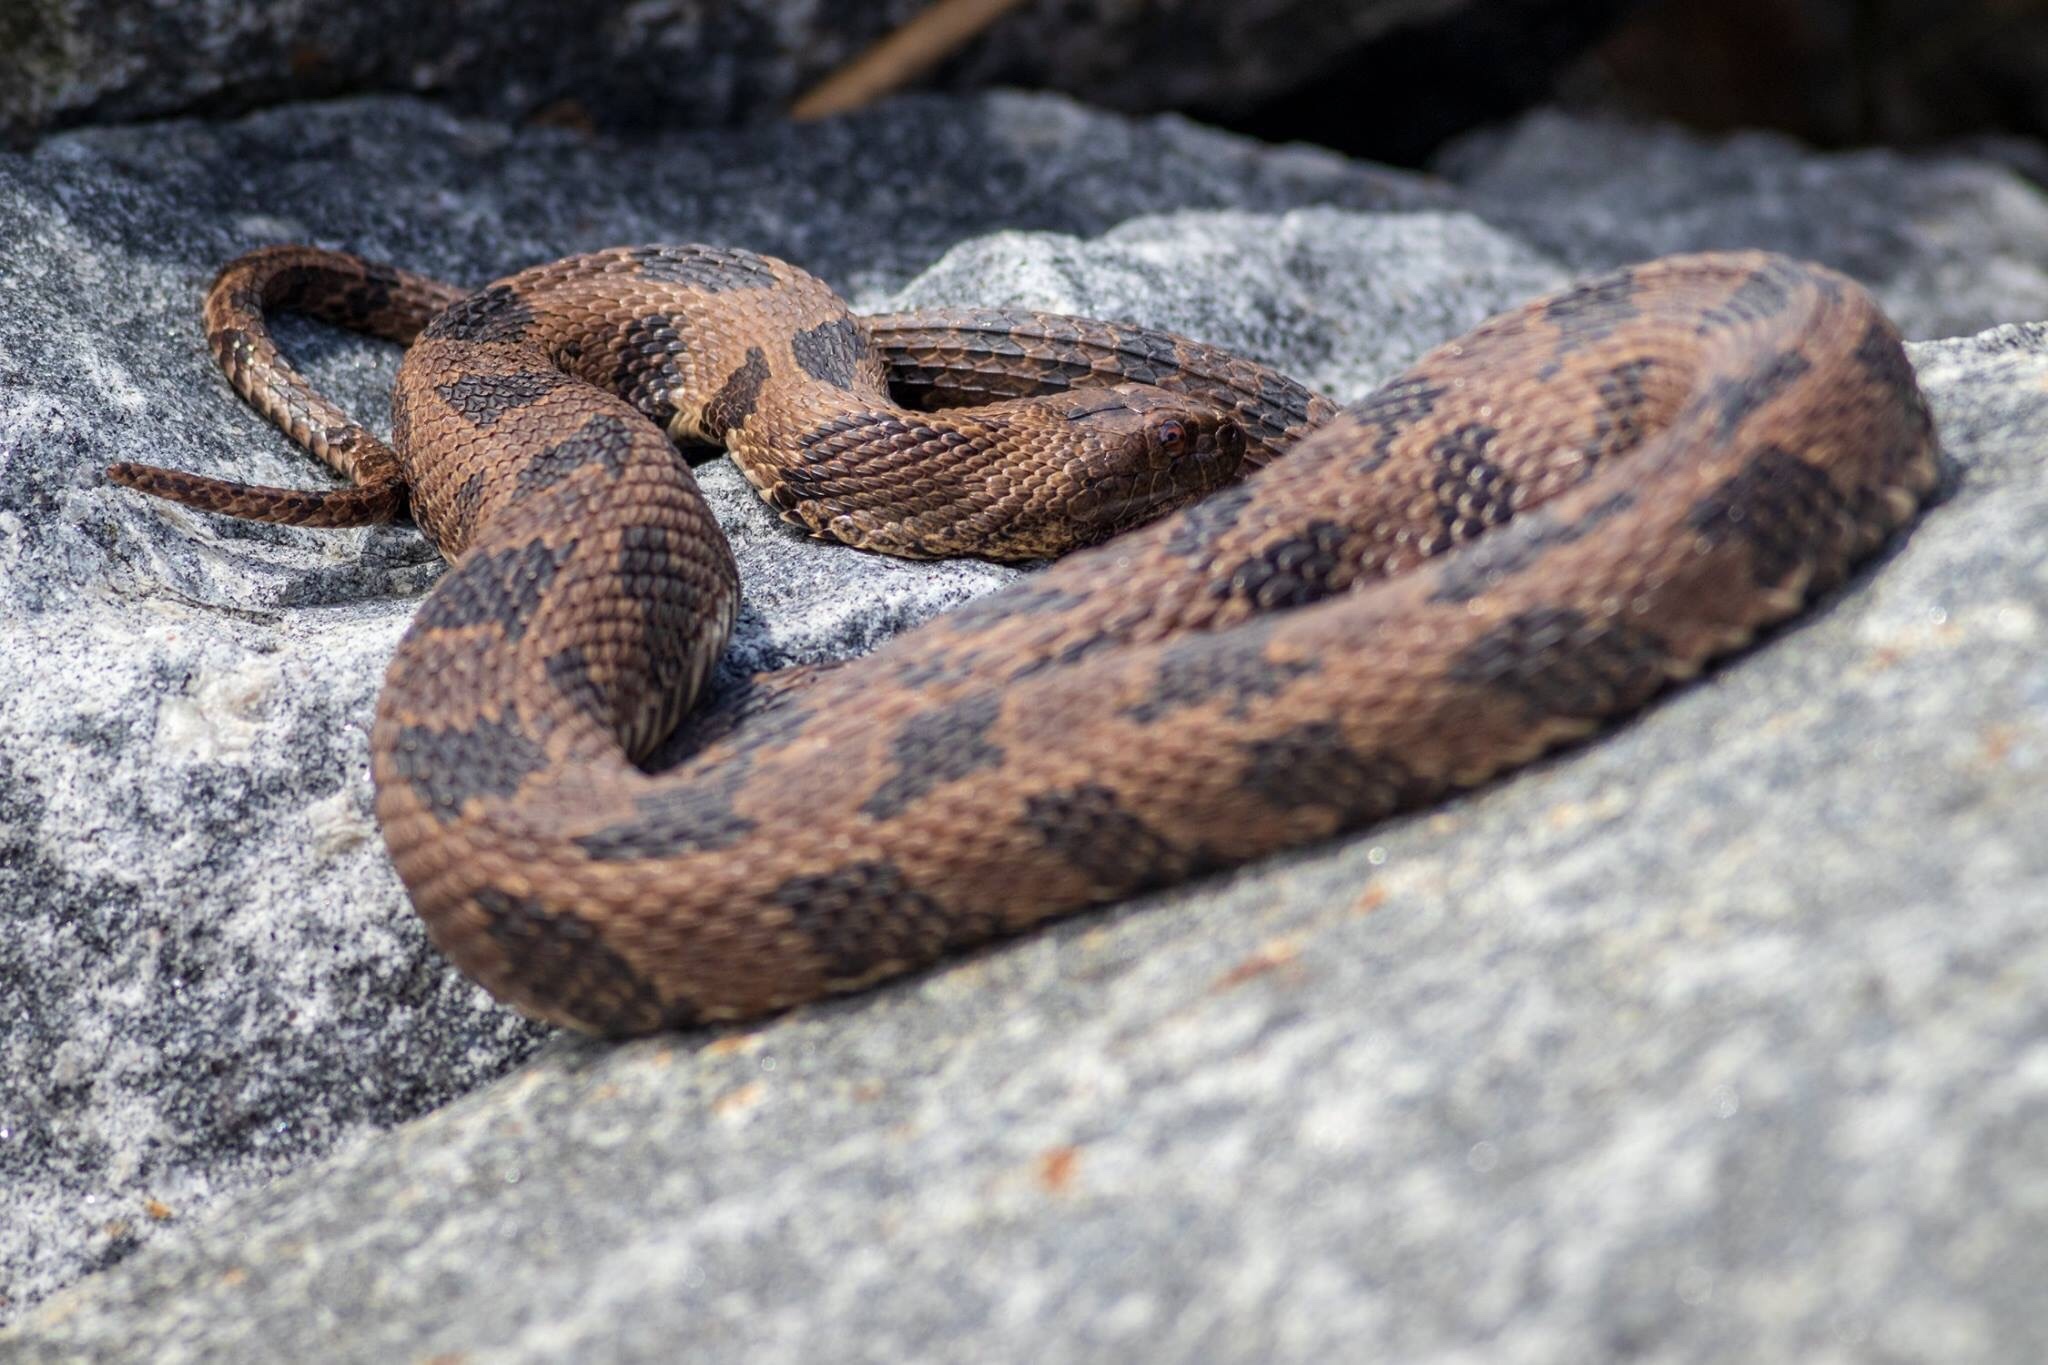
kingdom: Animalia
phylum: Chordata
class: Squamata
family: Colubridae
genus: Nerodia
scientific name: Nerodia taxispilota
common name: Brown water snake
